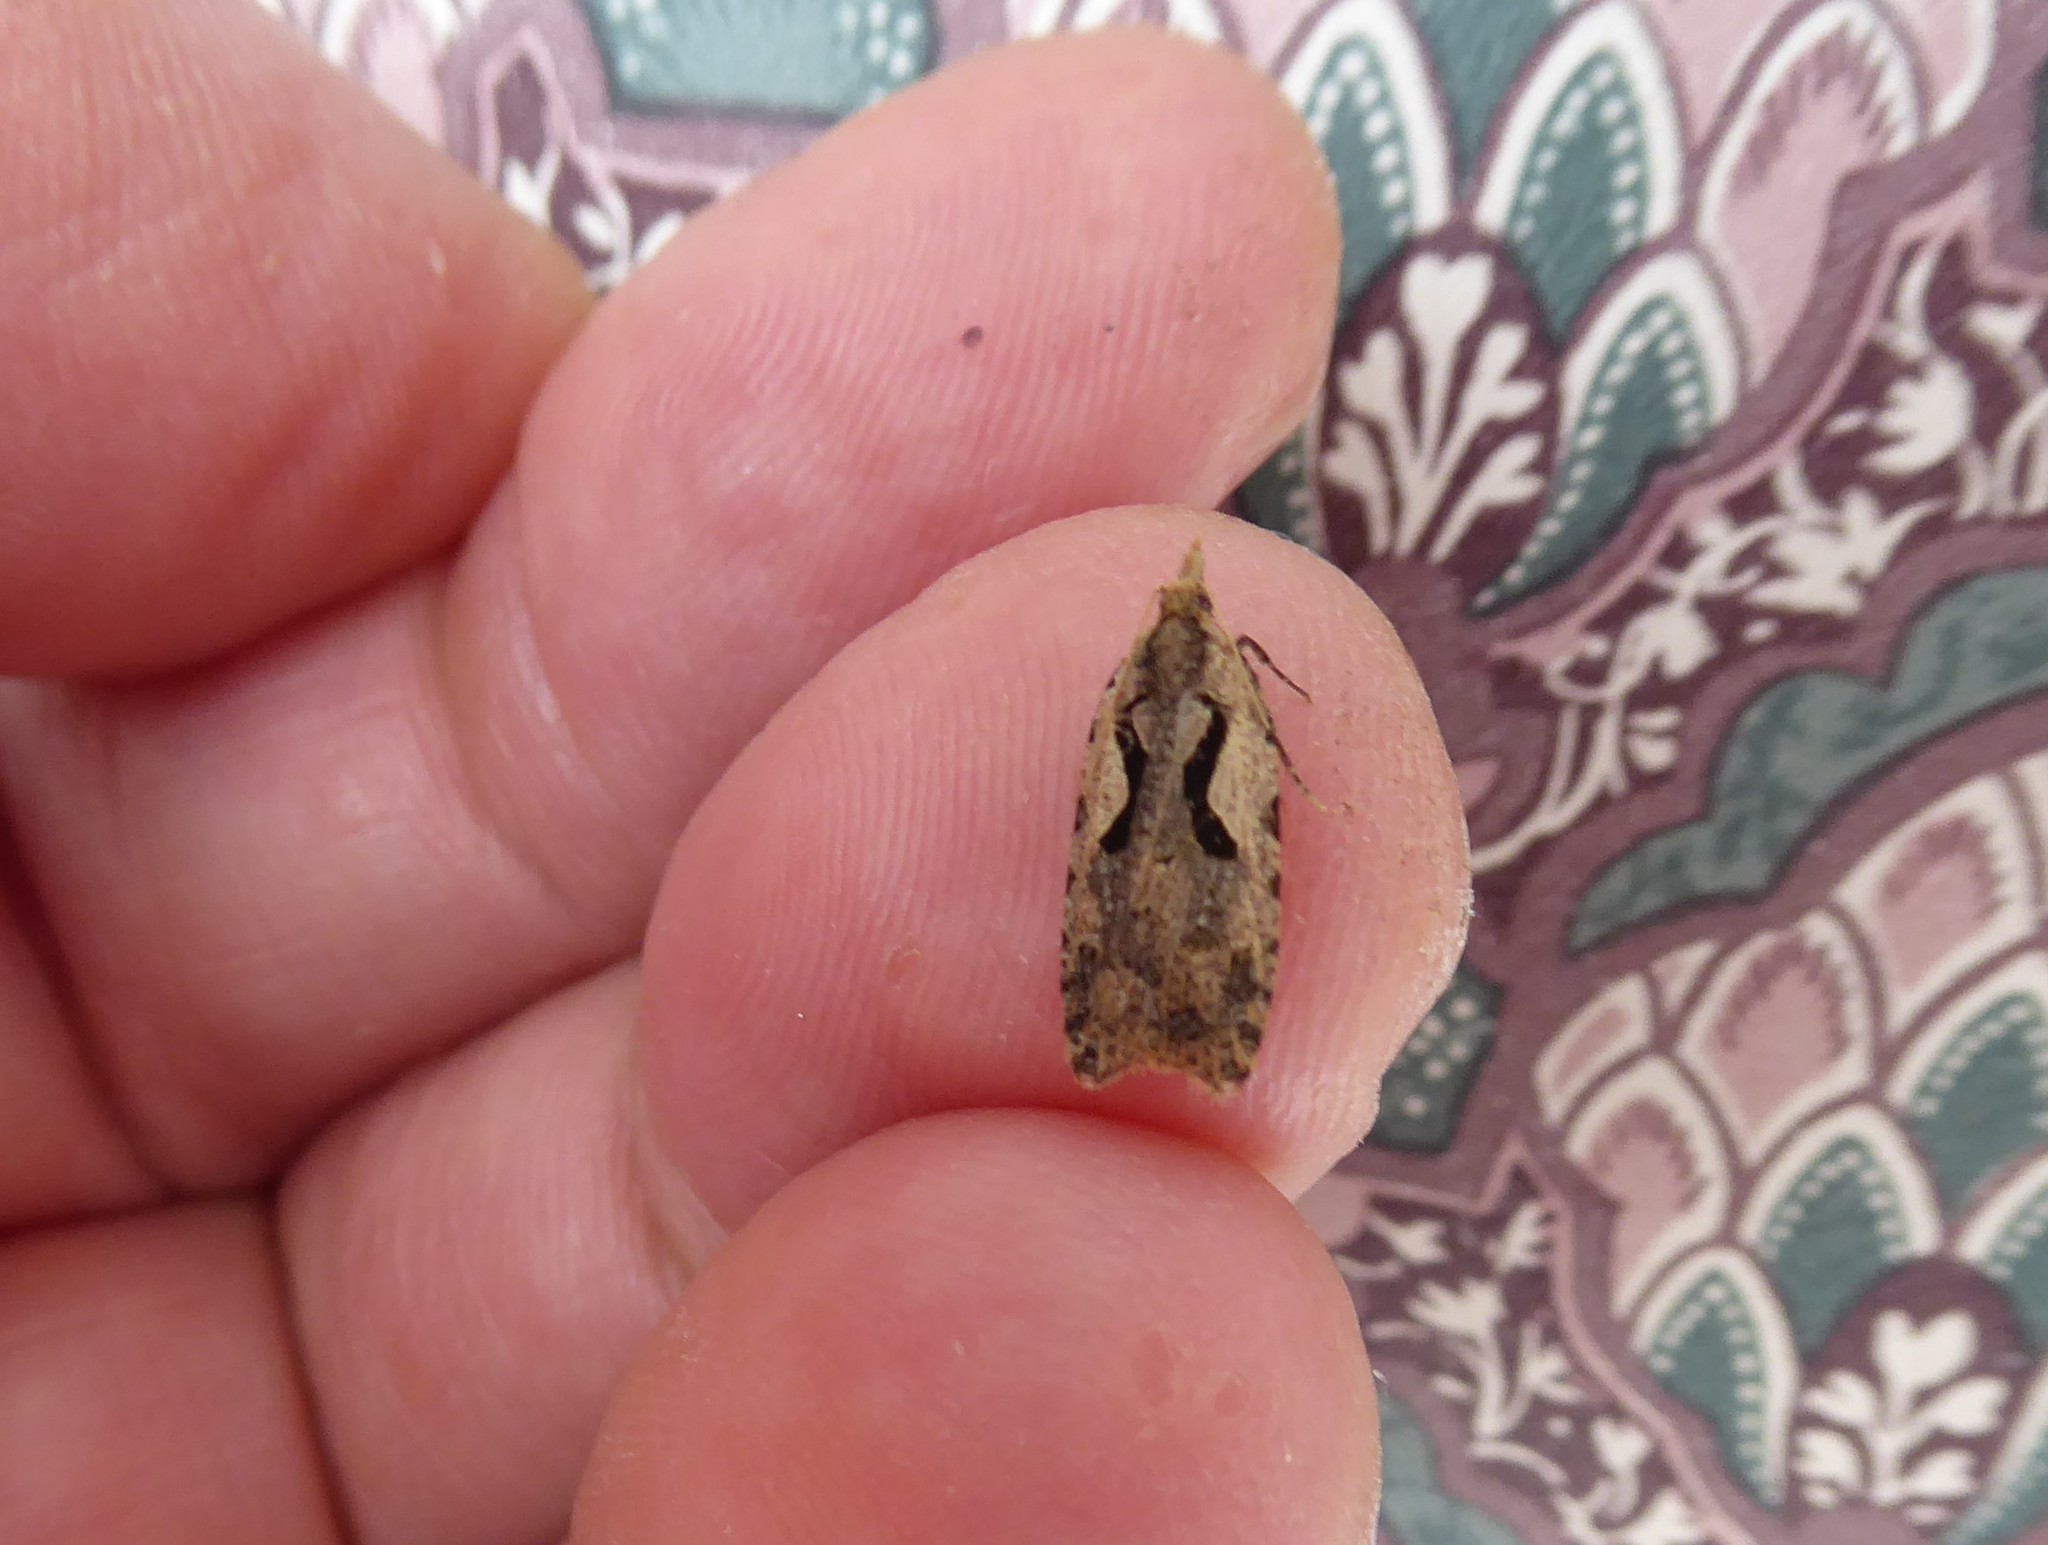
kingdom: Animalia
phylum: Arthropoda
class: Insecta
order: Lepidoptera
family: Tortricidae
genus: Cnephasia
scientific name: Cnephasia jactatana
